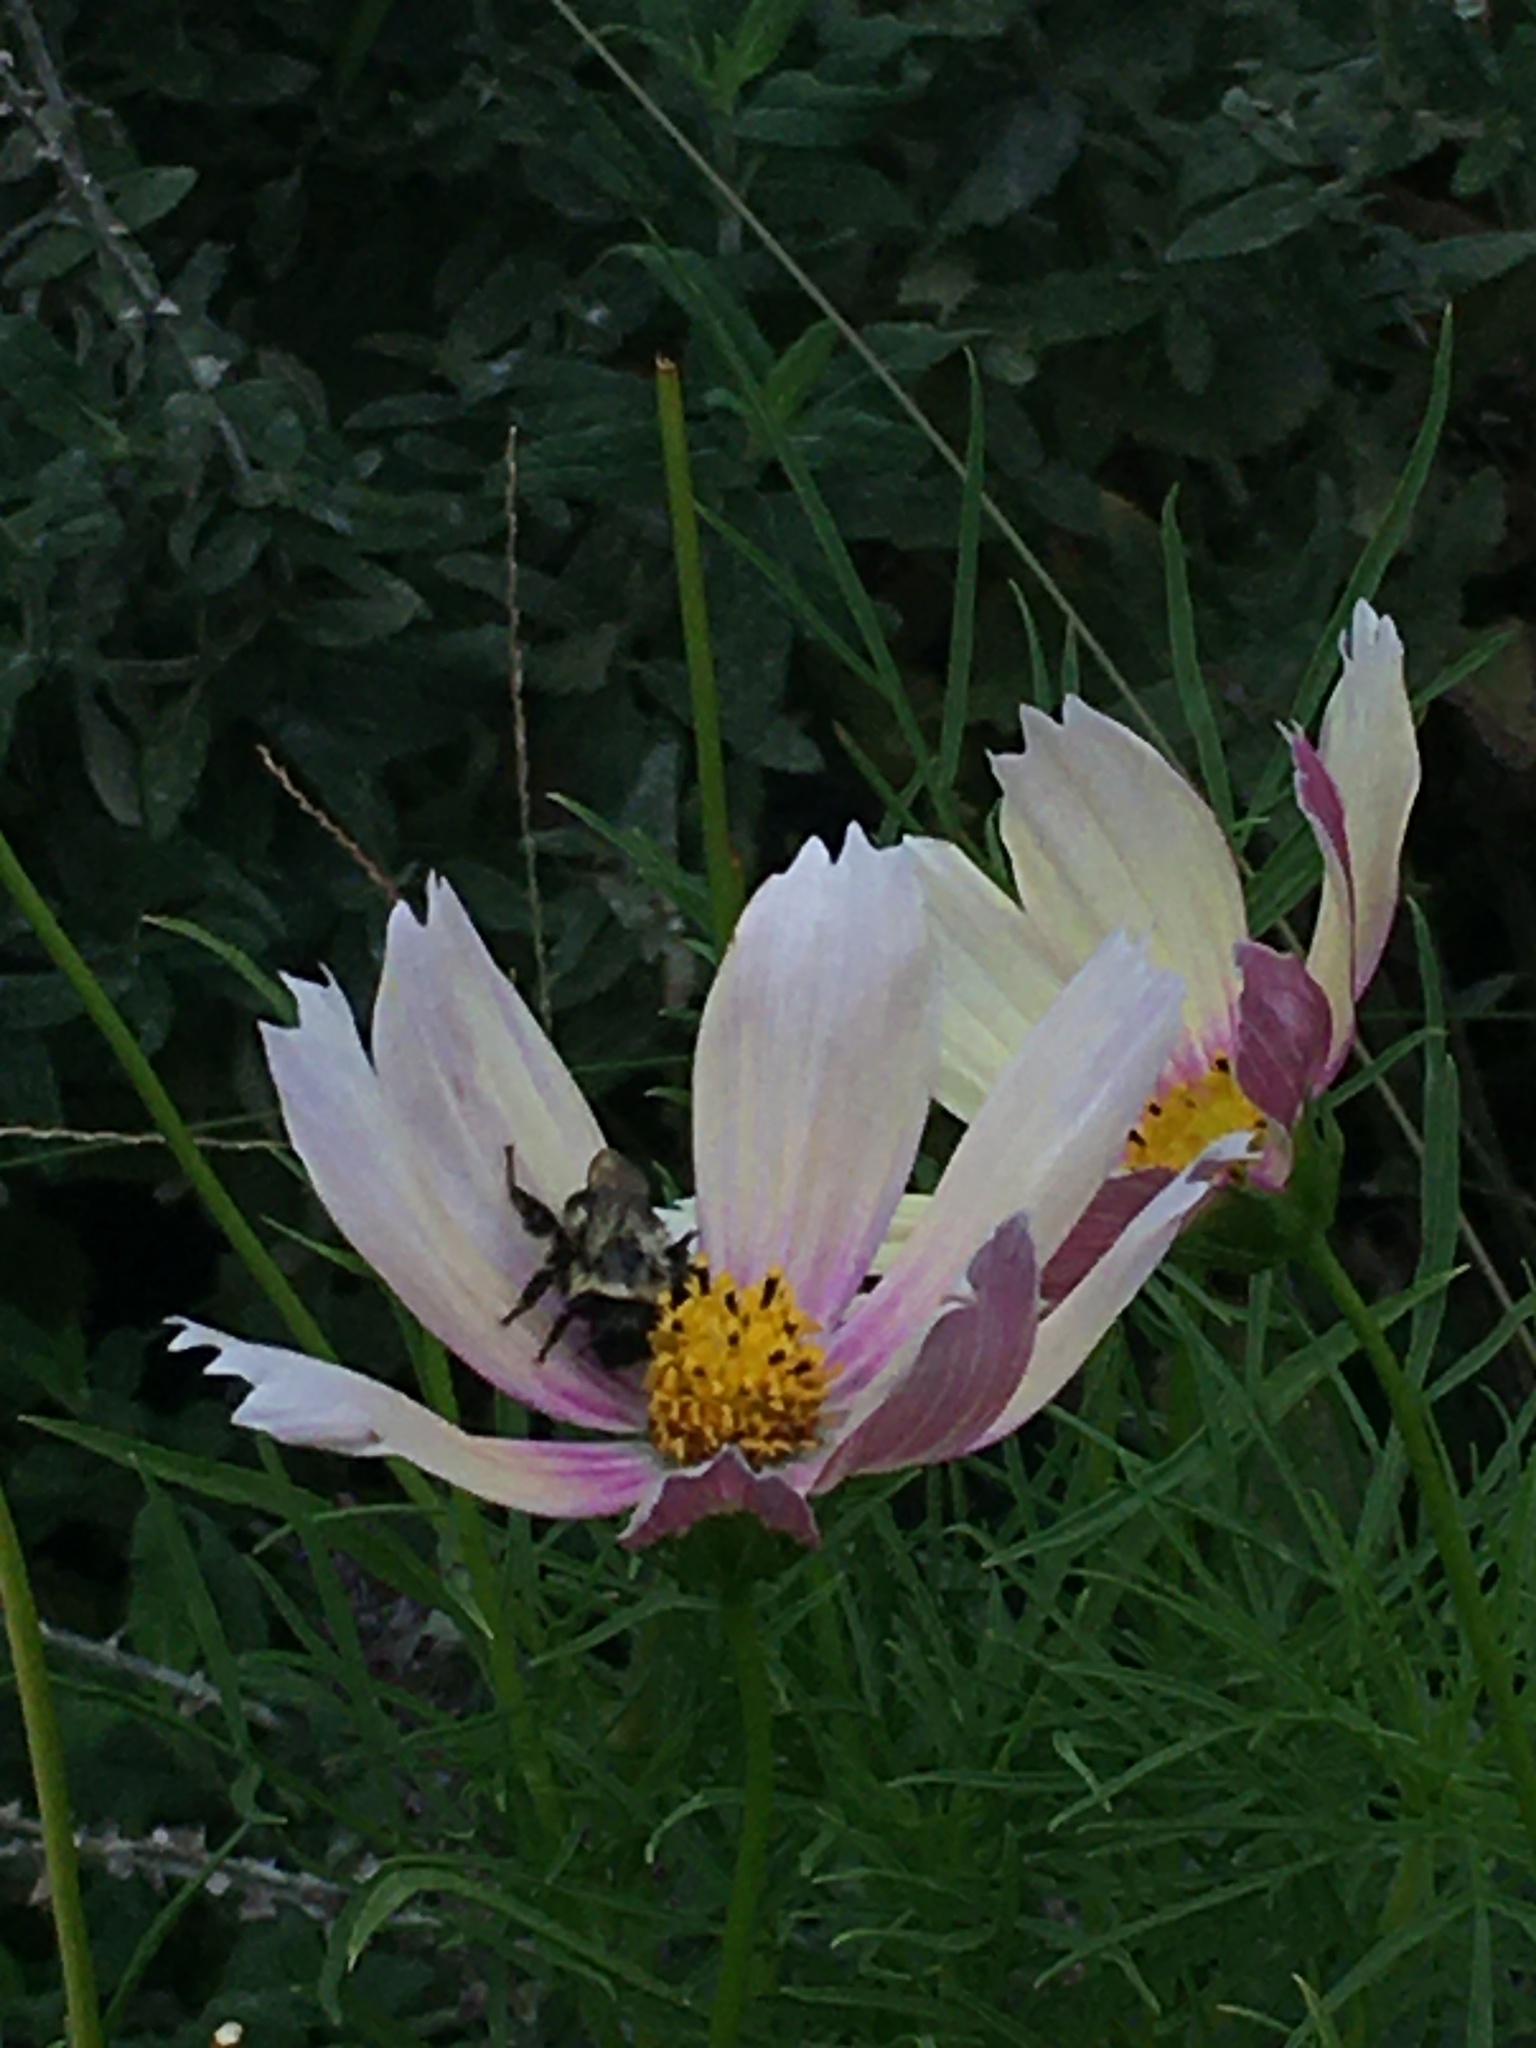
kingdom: Animalia
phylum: Arthropoda
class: Insecta
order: Hymenoptera
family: Apidae
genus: Bombus
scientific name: Bombus impatiens
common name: Common eastern bumble bee
